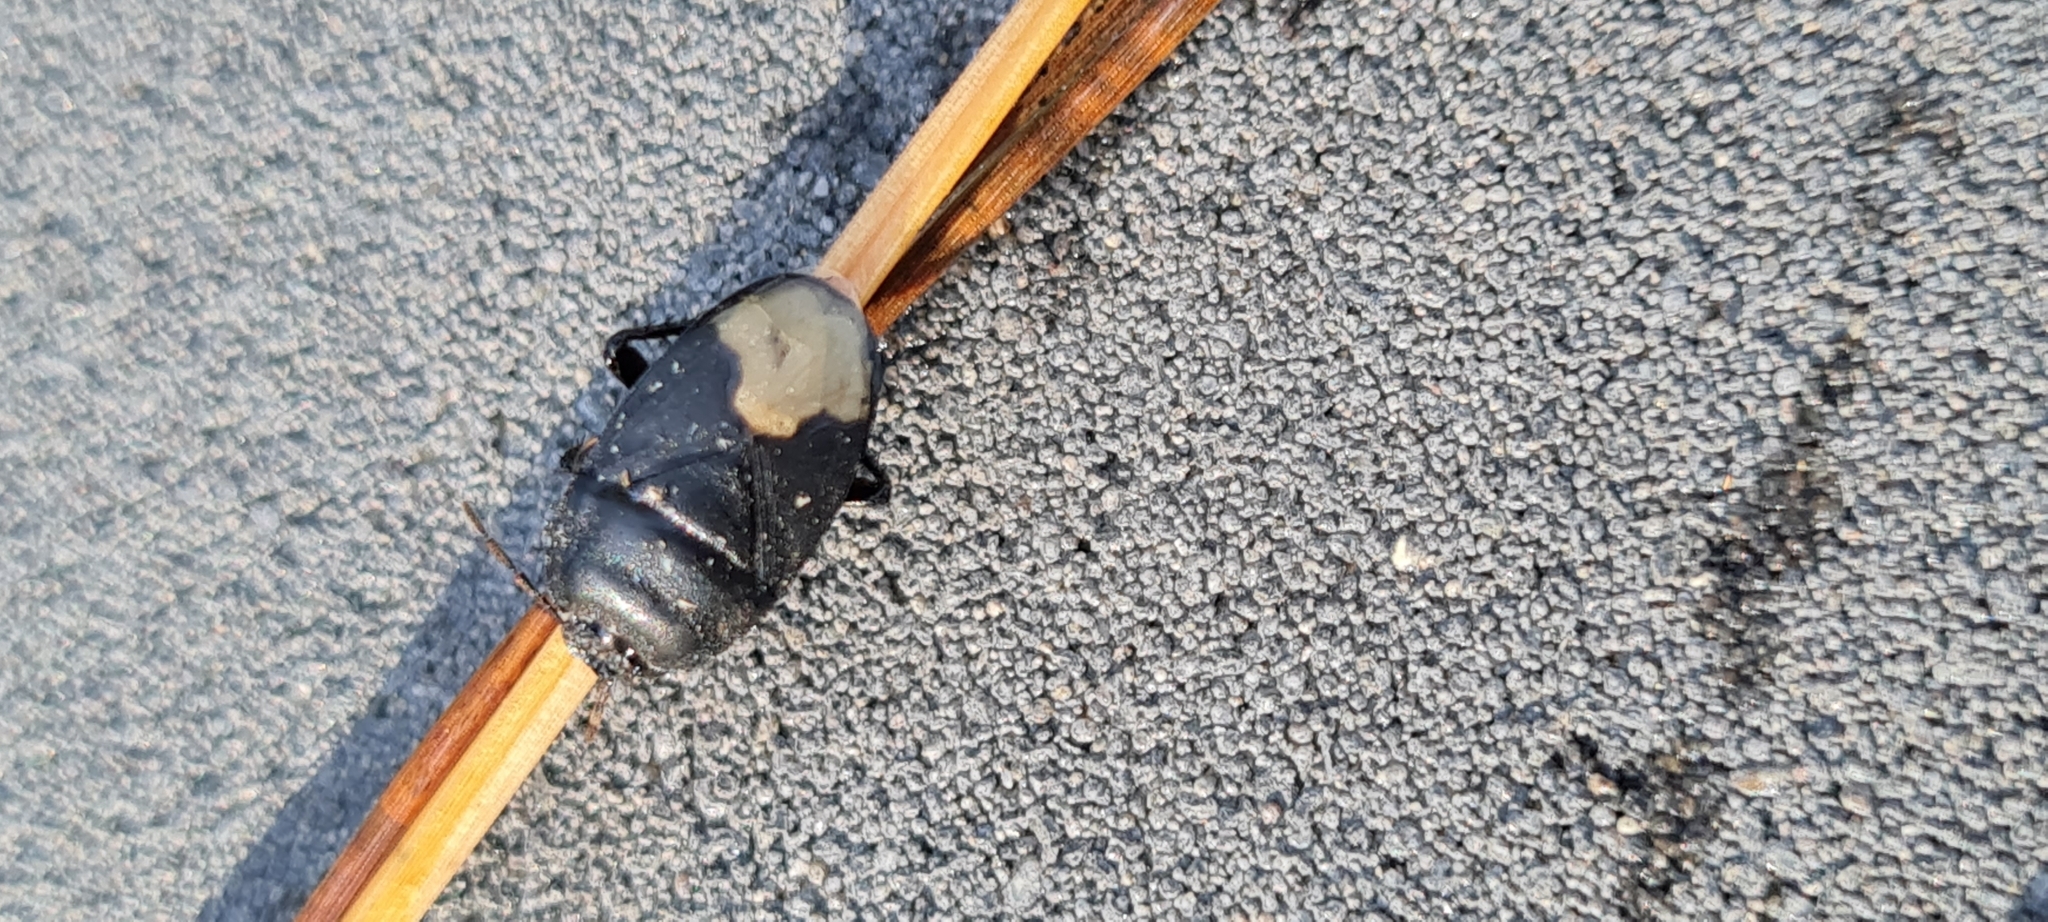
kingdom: Animalia
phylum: Arthropoda
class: Insecta
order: Hemiptera
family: Cydnidae
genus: Cydnus
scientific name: Cydnus aterrimus
